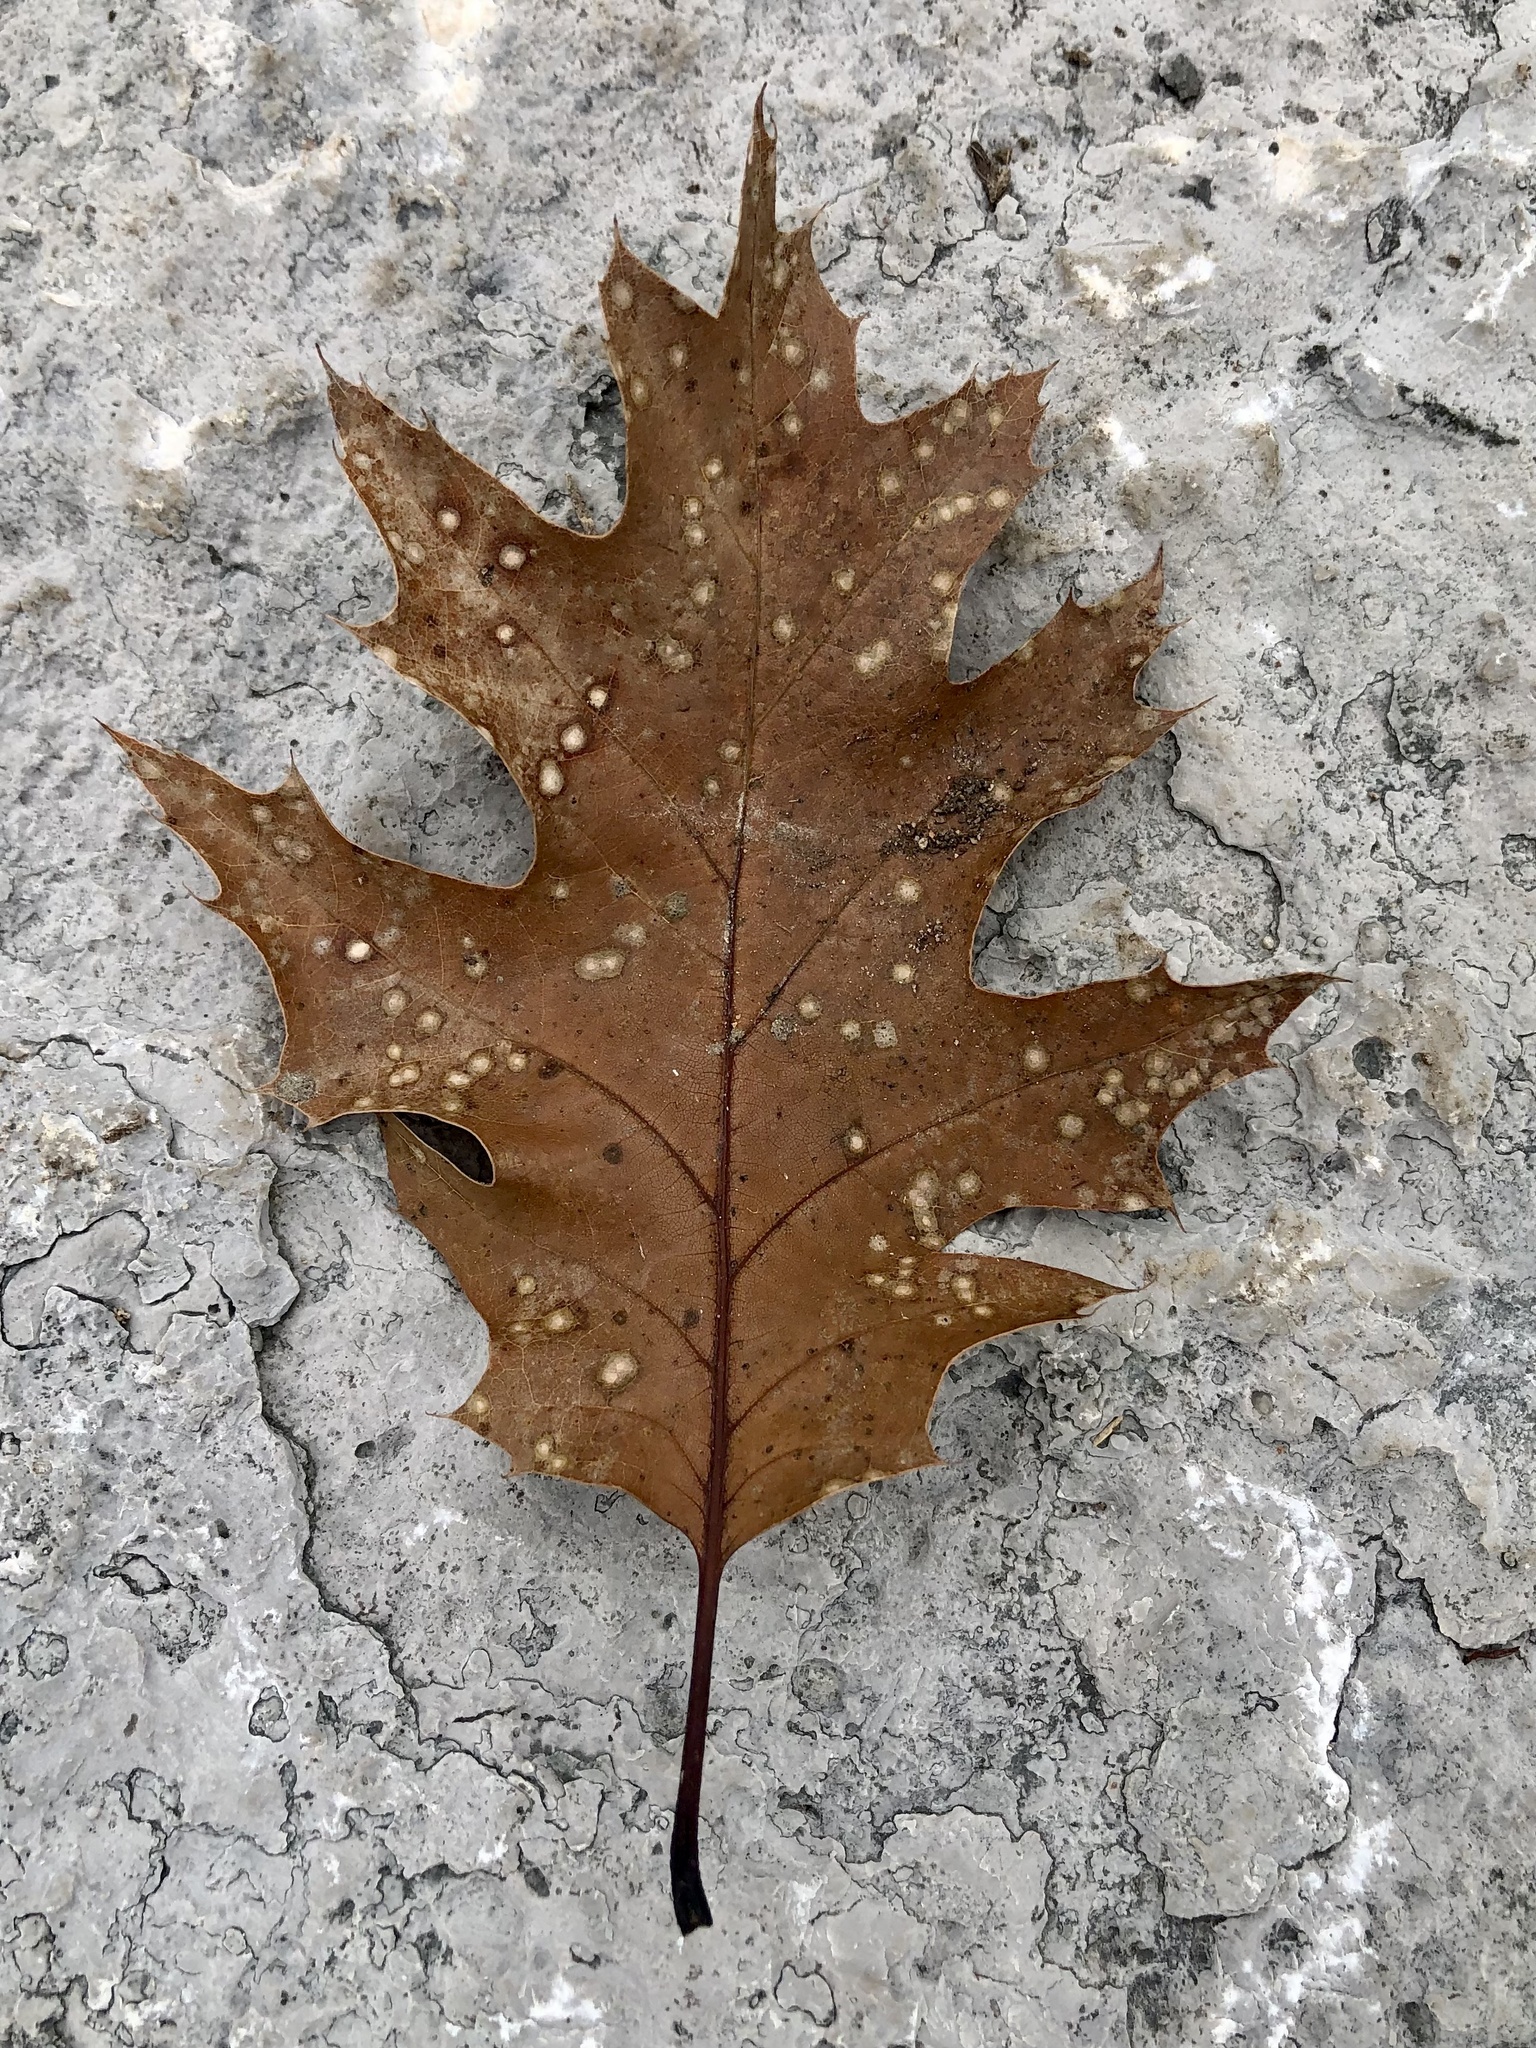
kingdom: Plantae
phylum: Tracheophyta
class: Magnoliopsida
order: Fagales
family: Fagaceae
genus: Quercus
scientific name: Quercus rubra
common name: Red oak
